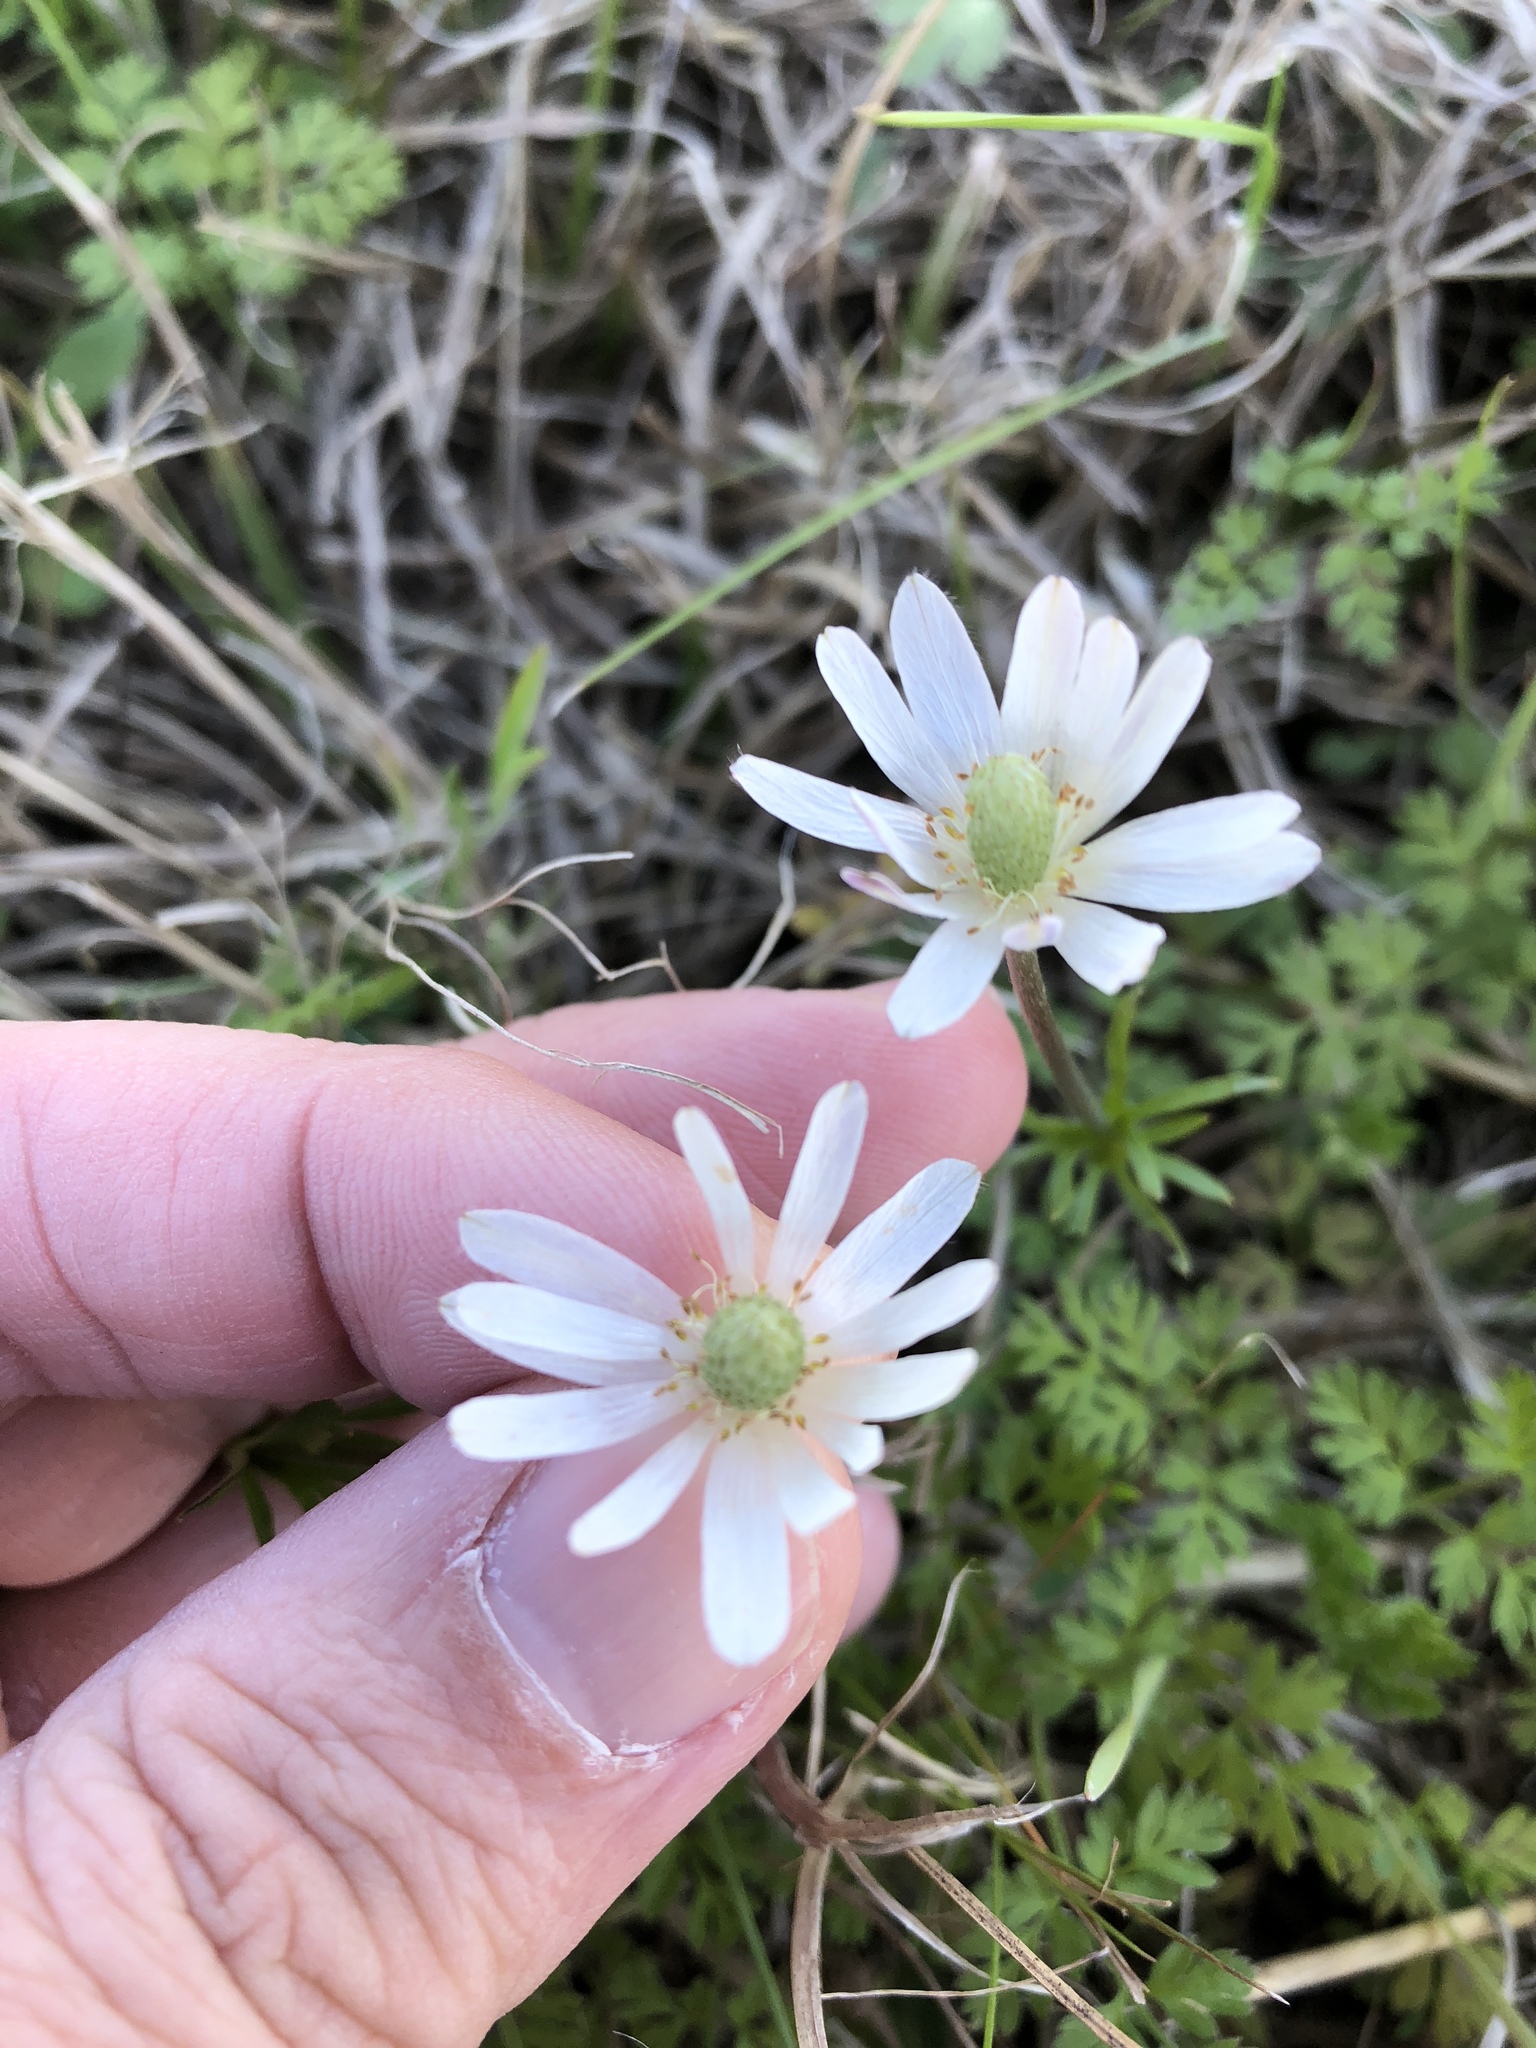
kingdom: Plantae
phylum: Tracheophyta
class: Magnoliopsida
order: Ranunculales
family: Ranunculaceae
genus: Anemone
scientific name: Anemone berlandieri
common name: Ten-petal anemone
